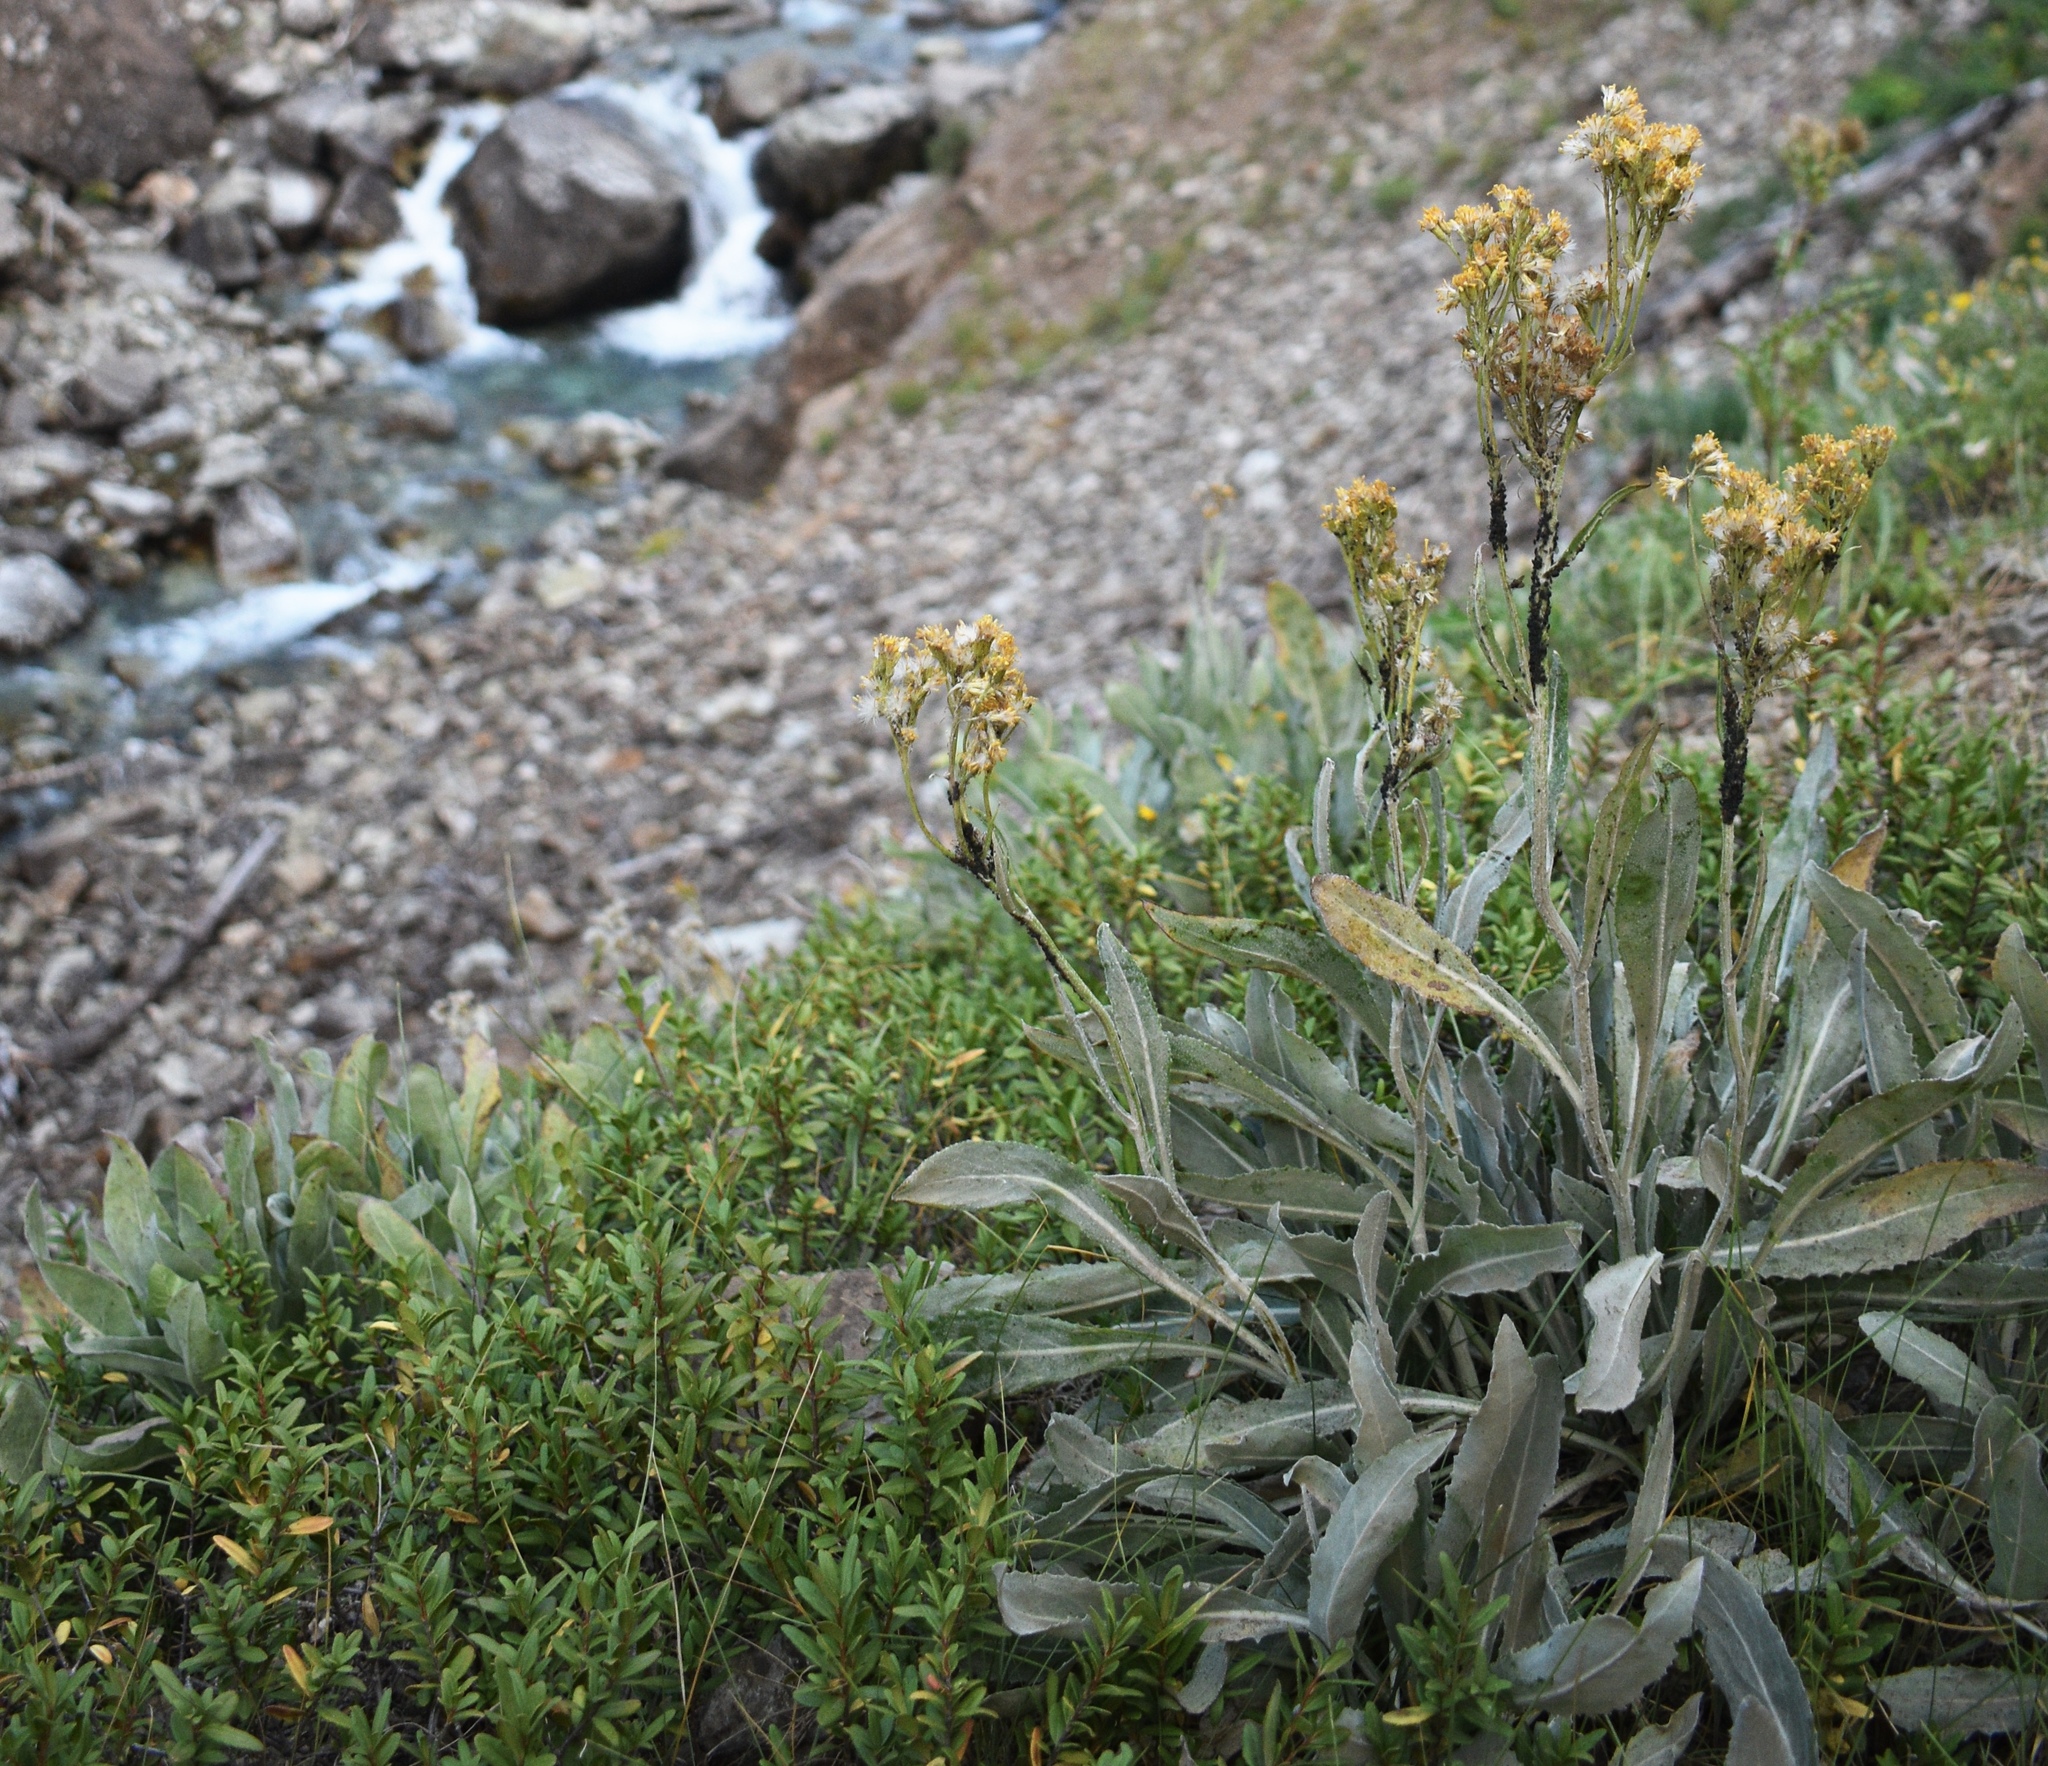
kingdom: Plantae
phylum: Tracheophyta
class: Magnoliopsida
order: Asterales
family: Asteraceae
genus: Senecio
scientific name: Senecio atratus
